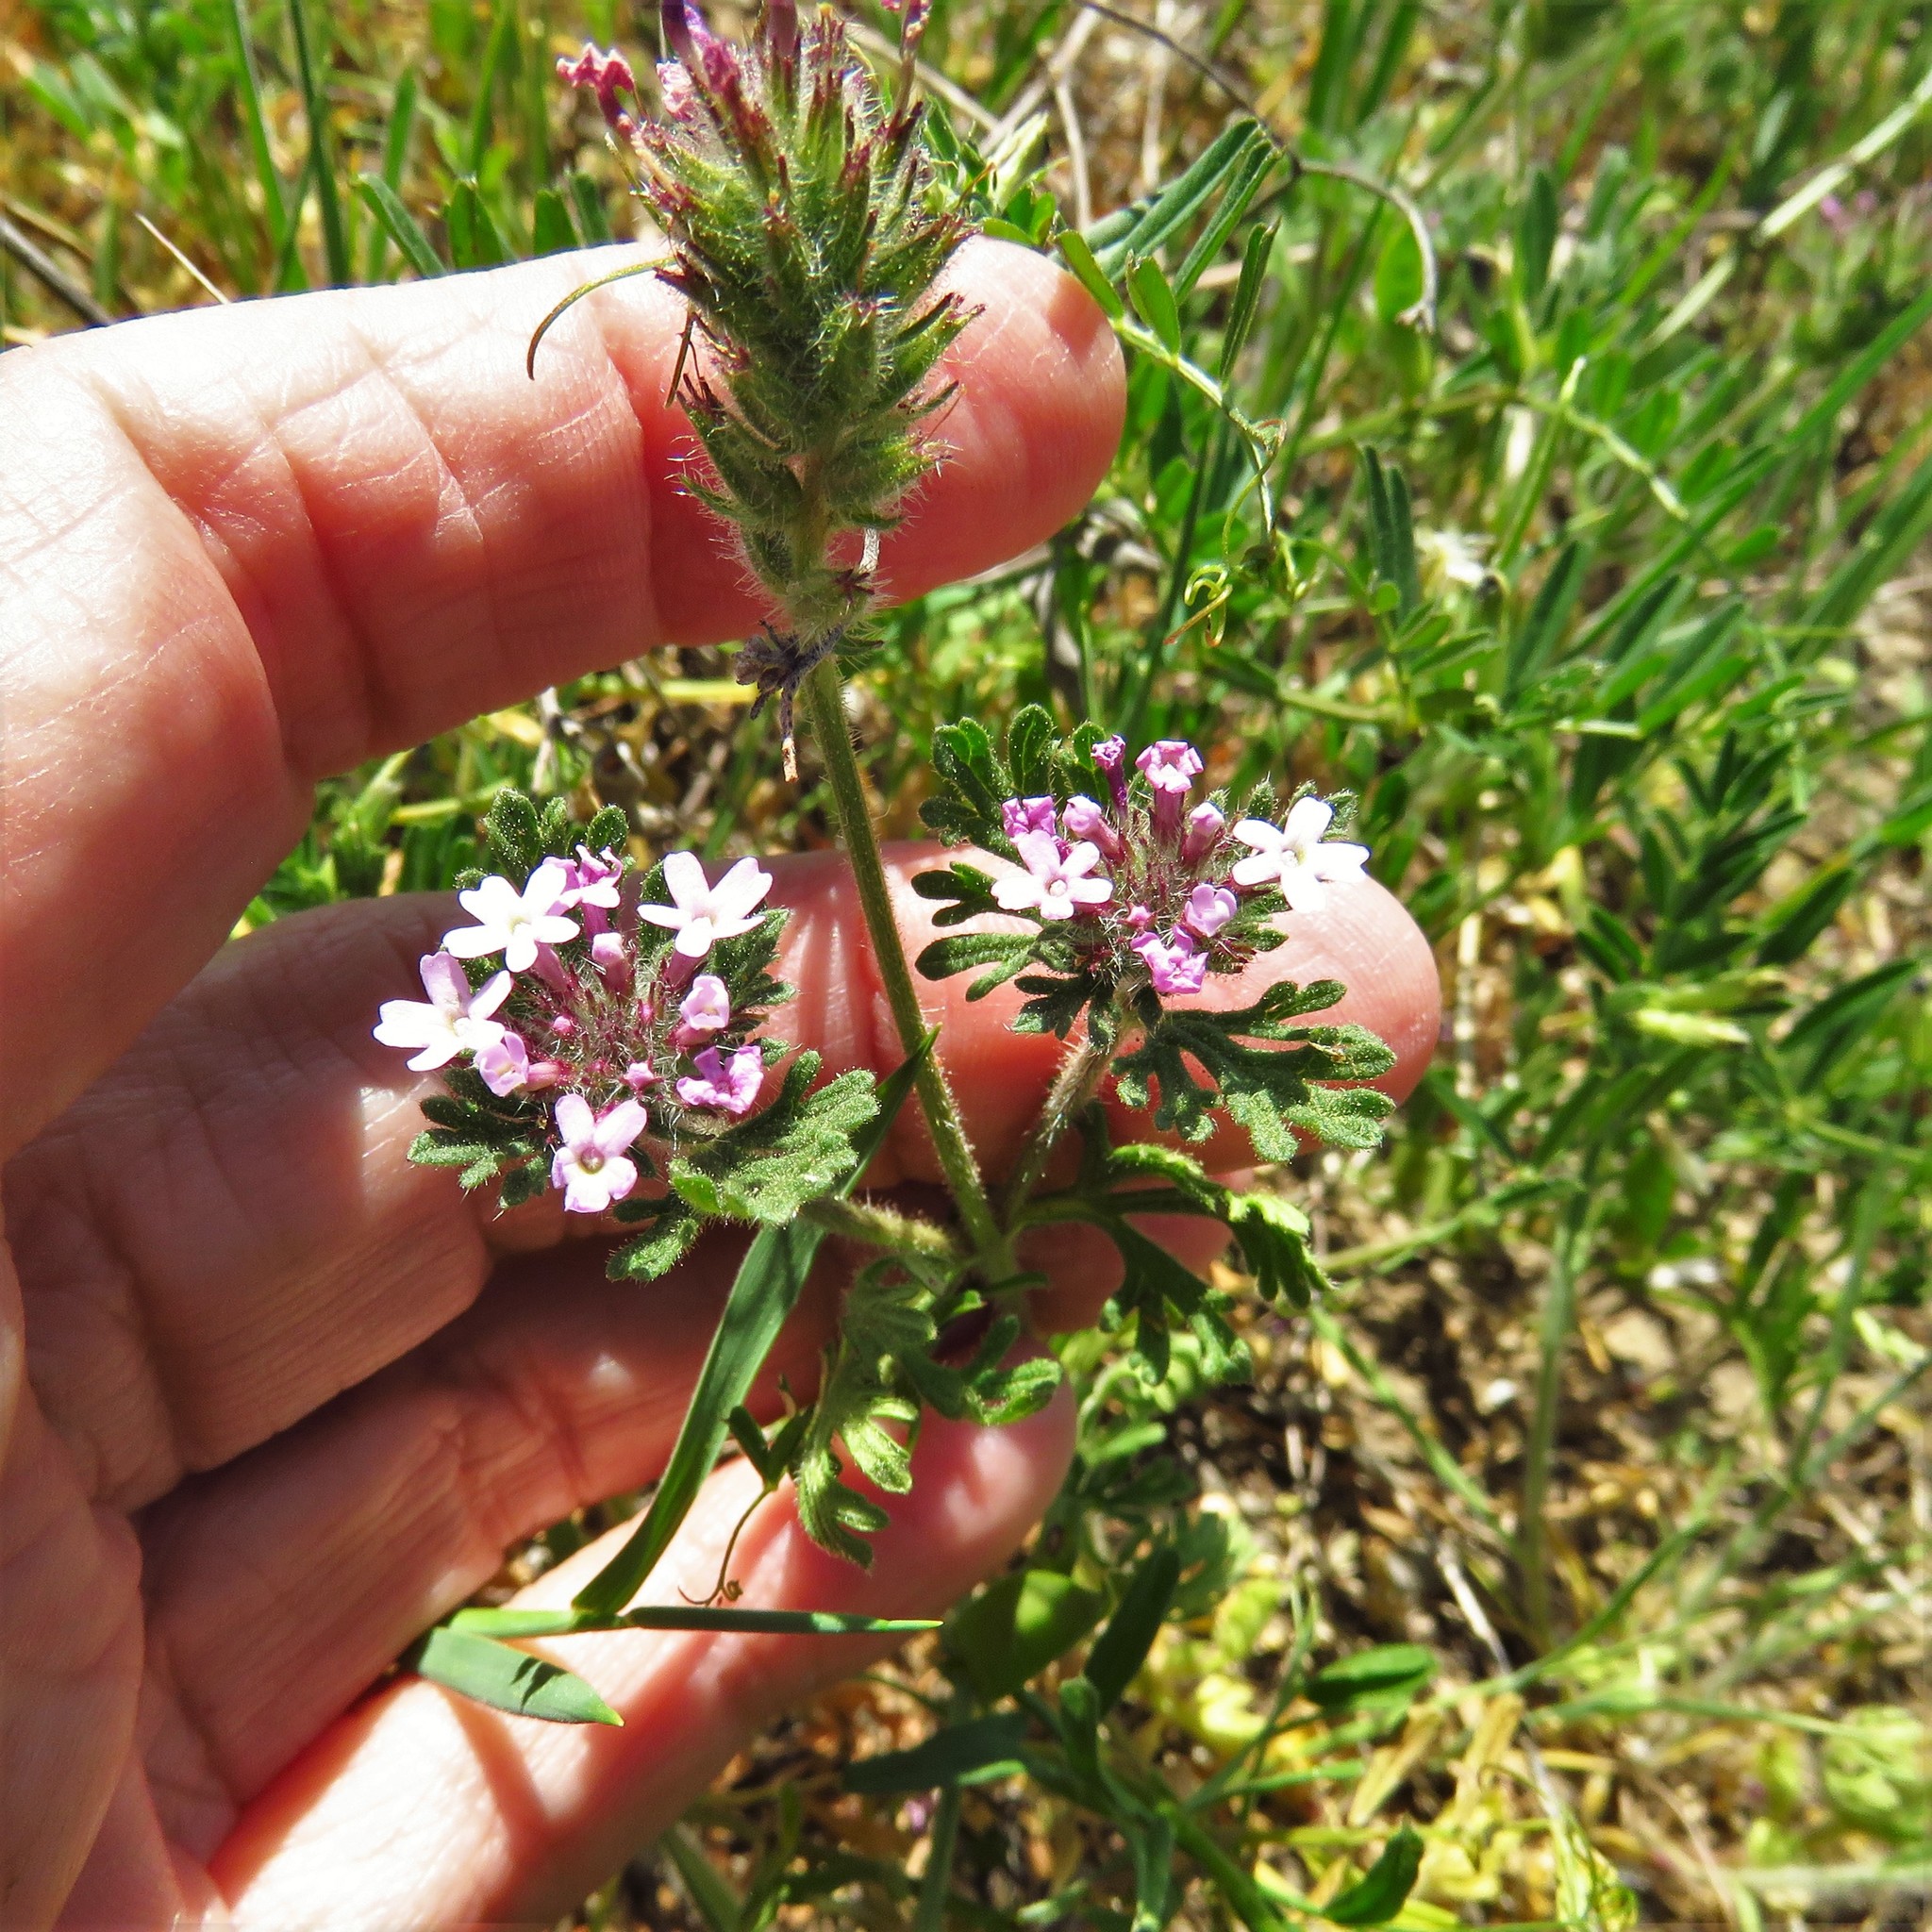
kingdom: Plantae
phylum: Tracheophyta
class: Magnoliopsida
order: Lamiales
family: Verbenaceae
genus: Verbena
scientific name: Verbena pumila
